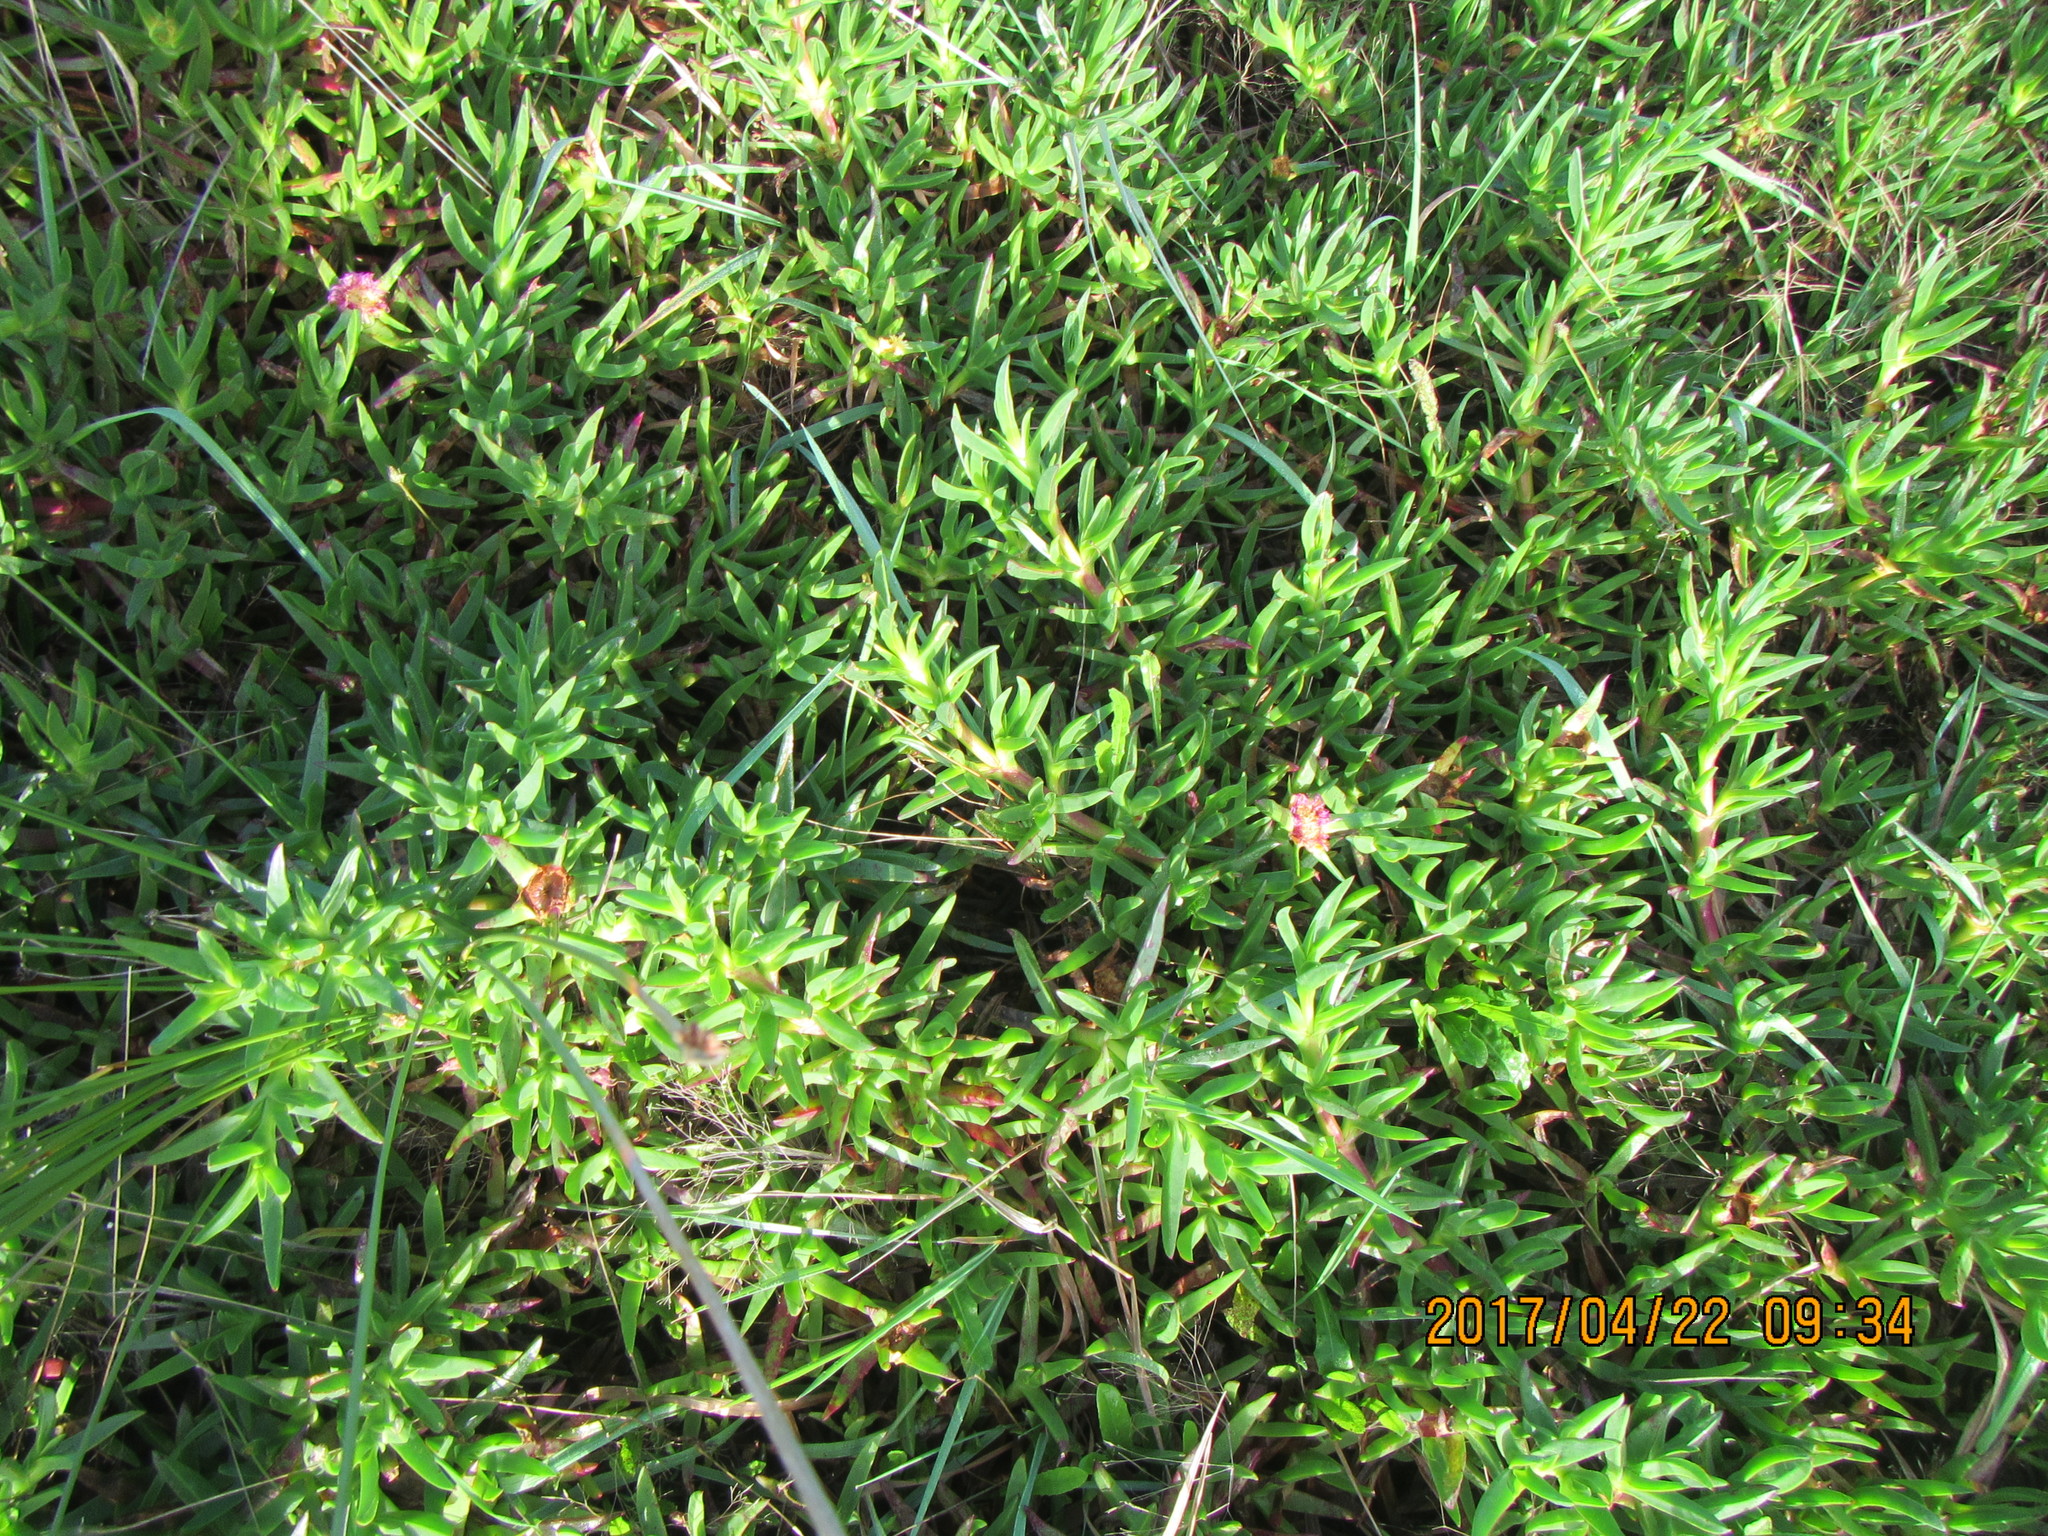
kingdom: Plantae
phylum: Tracheophyta
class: Magnoliopsida
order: Caryophyllales
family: Aizoaceae
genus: Carpobrotus
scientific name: Carpobrotus edulis
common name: Hottentot-fig
